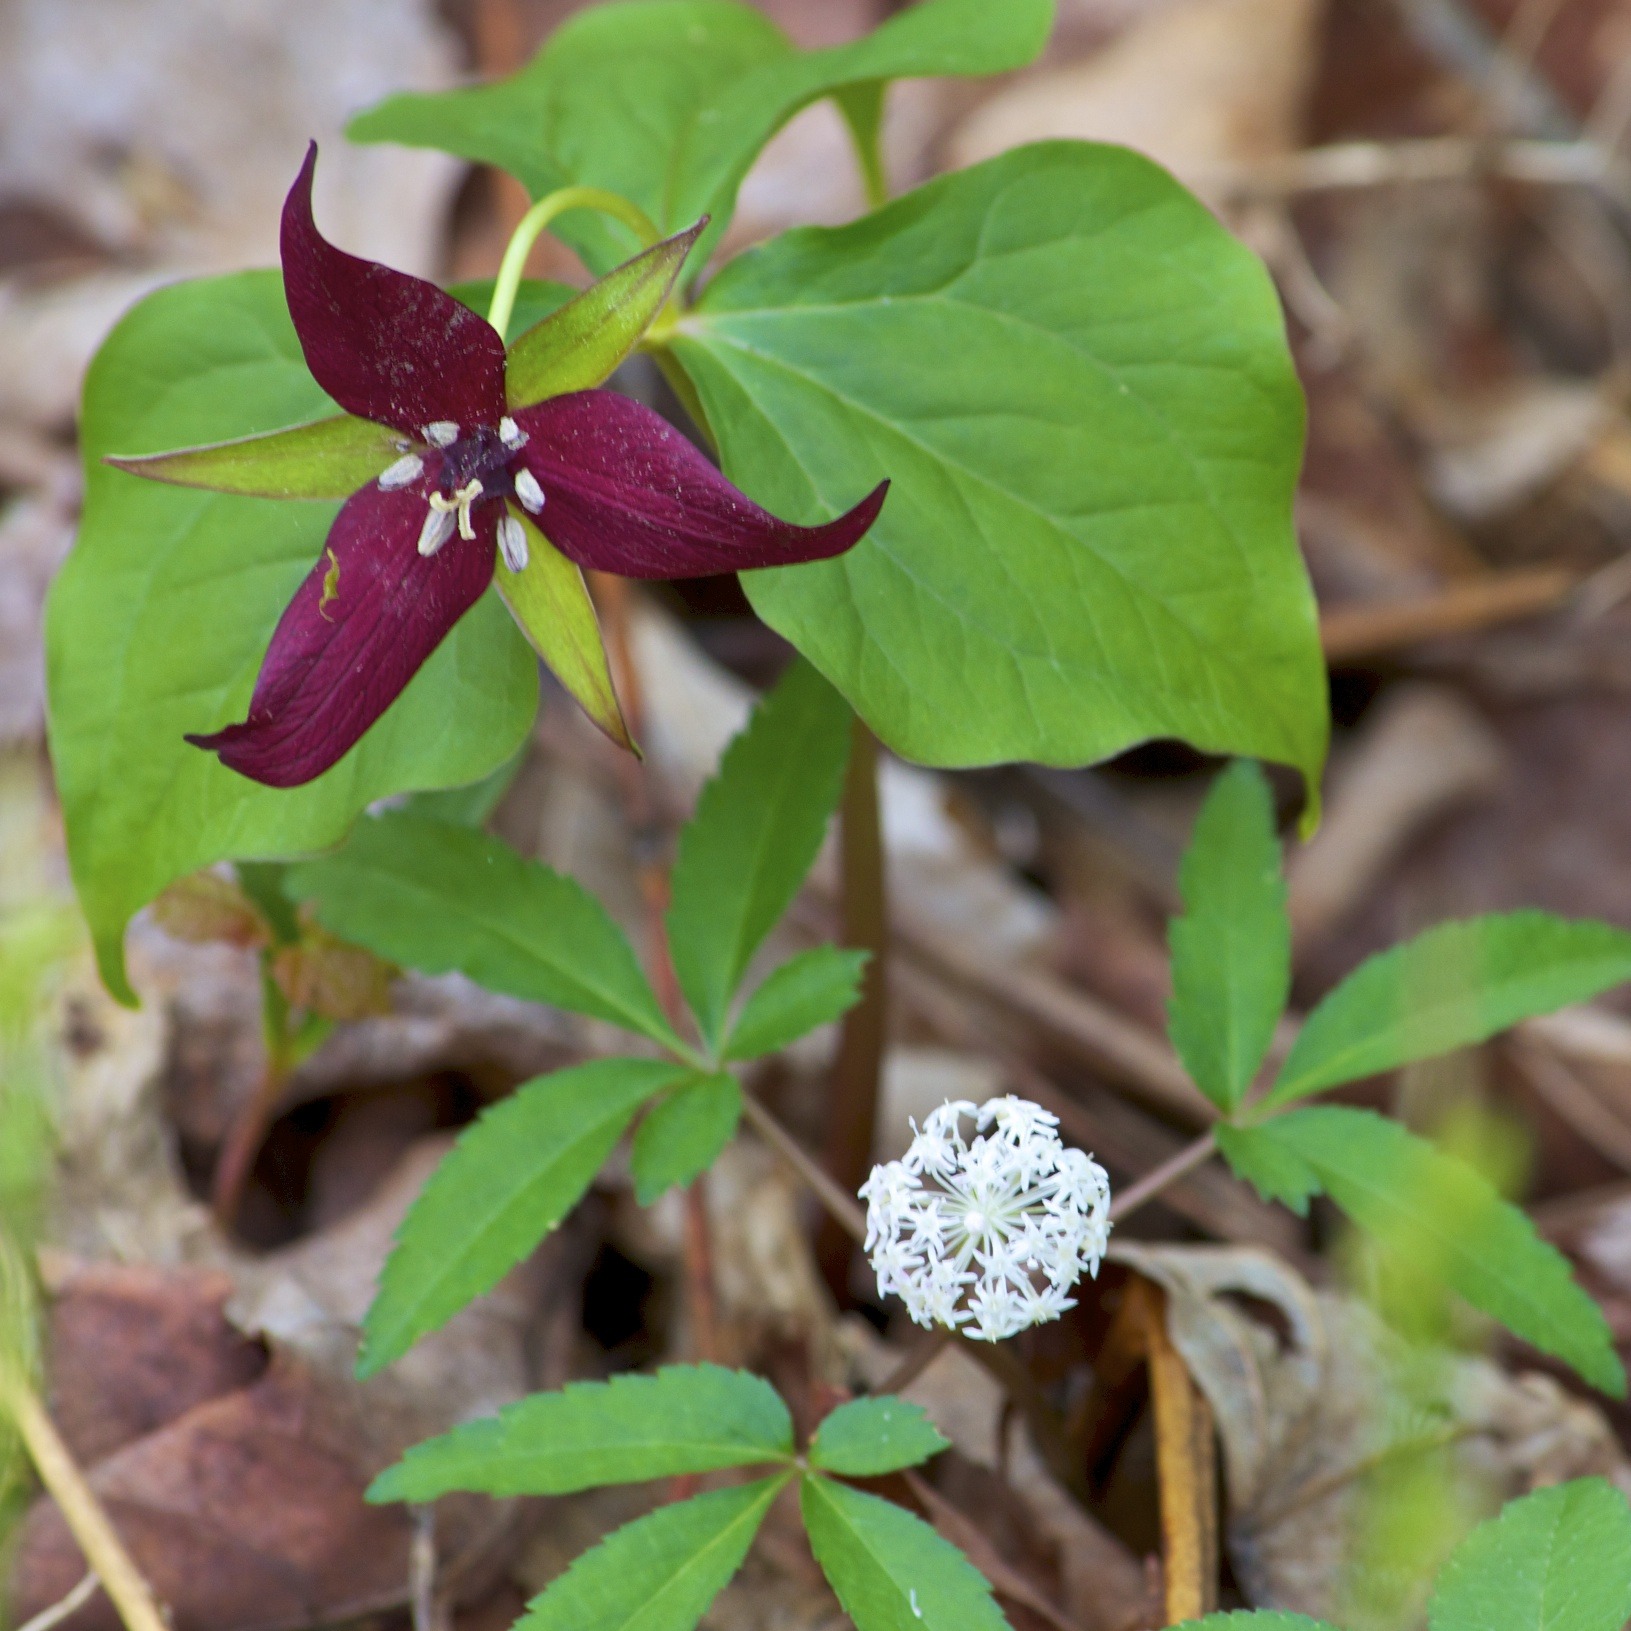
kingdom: Plantae
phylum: Tracheophyta
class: Magnoliopsida
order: Apiales
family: Araliaceae
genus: Panax
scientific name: Panax trifolius
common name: Dwarf ginseng
